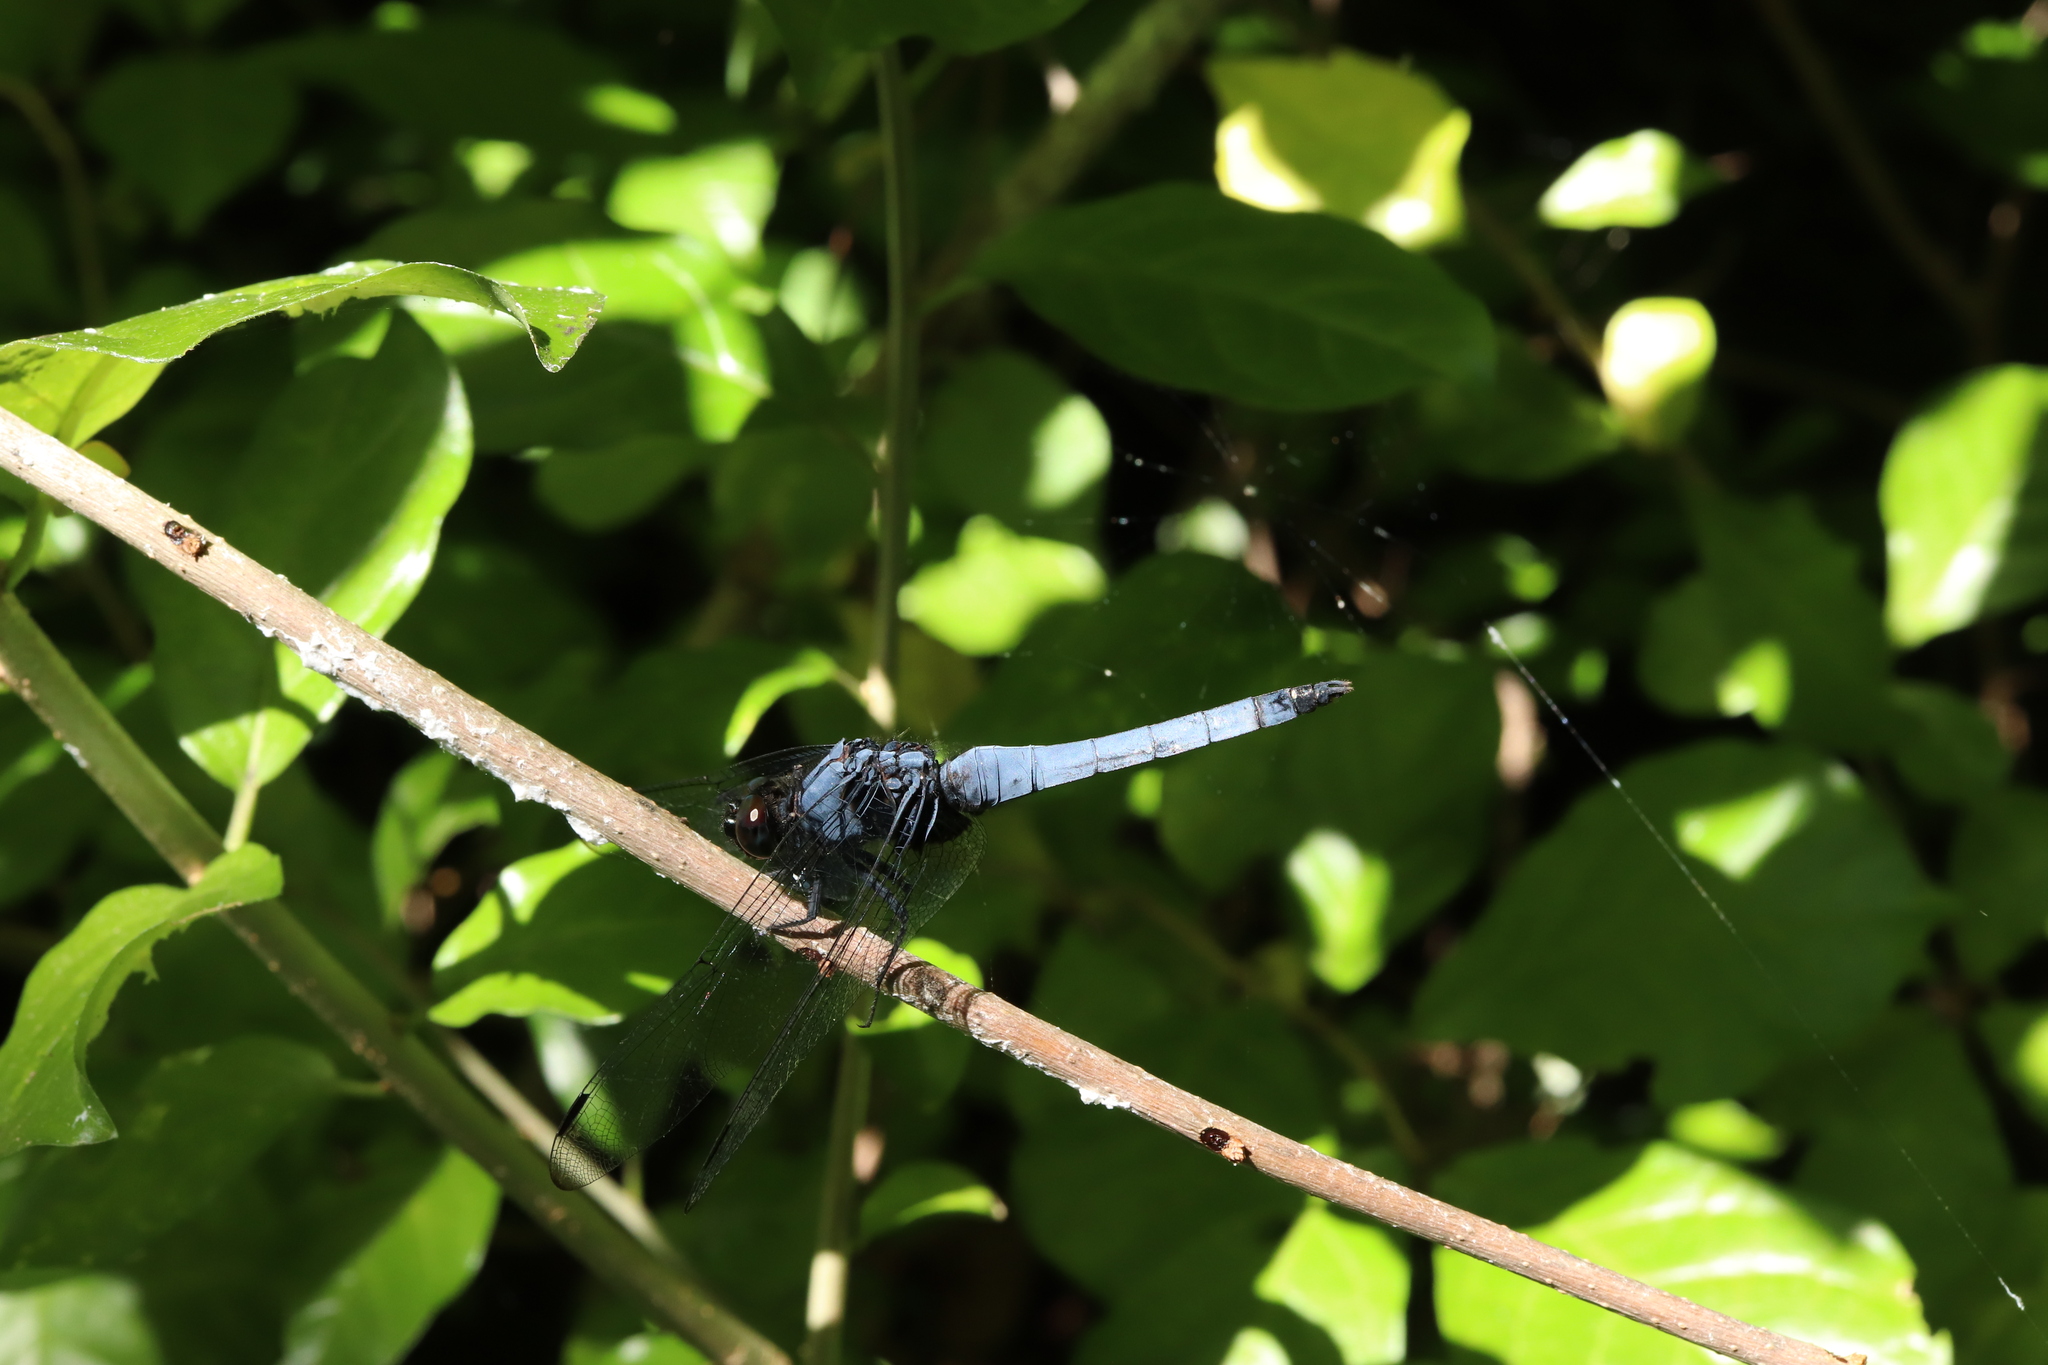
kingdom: Animalia
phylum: Arthropoda
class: Insecta
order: Odonata
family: Libellulidae
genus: Orthetrum
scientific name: Orthetrum melania
